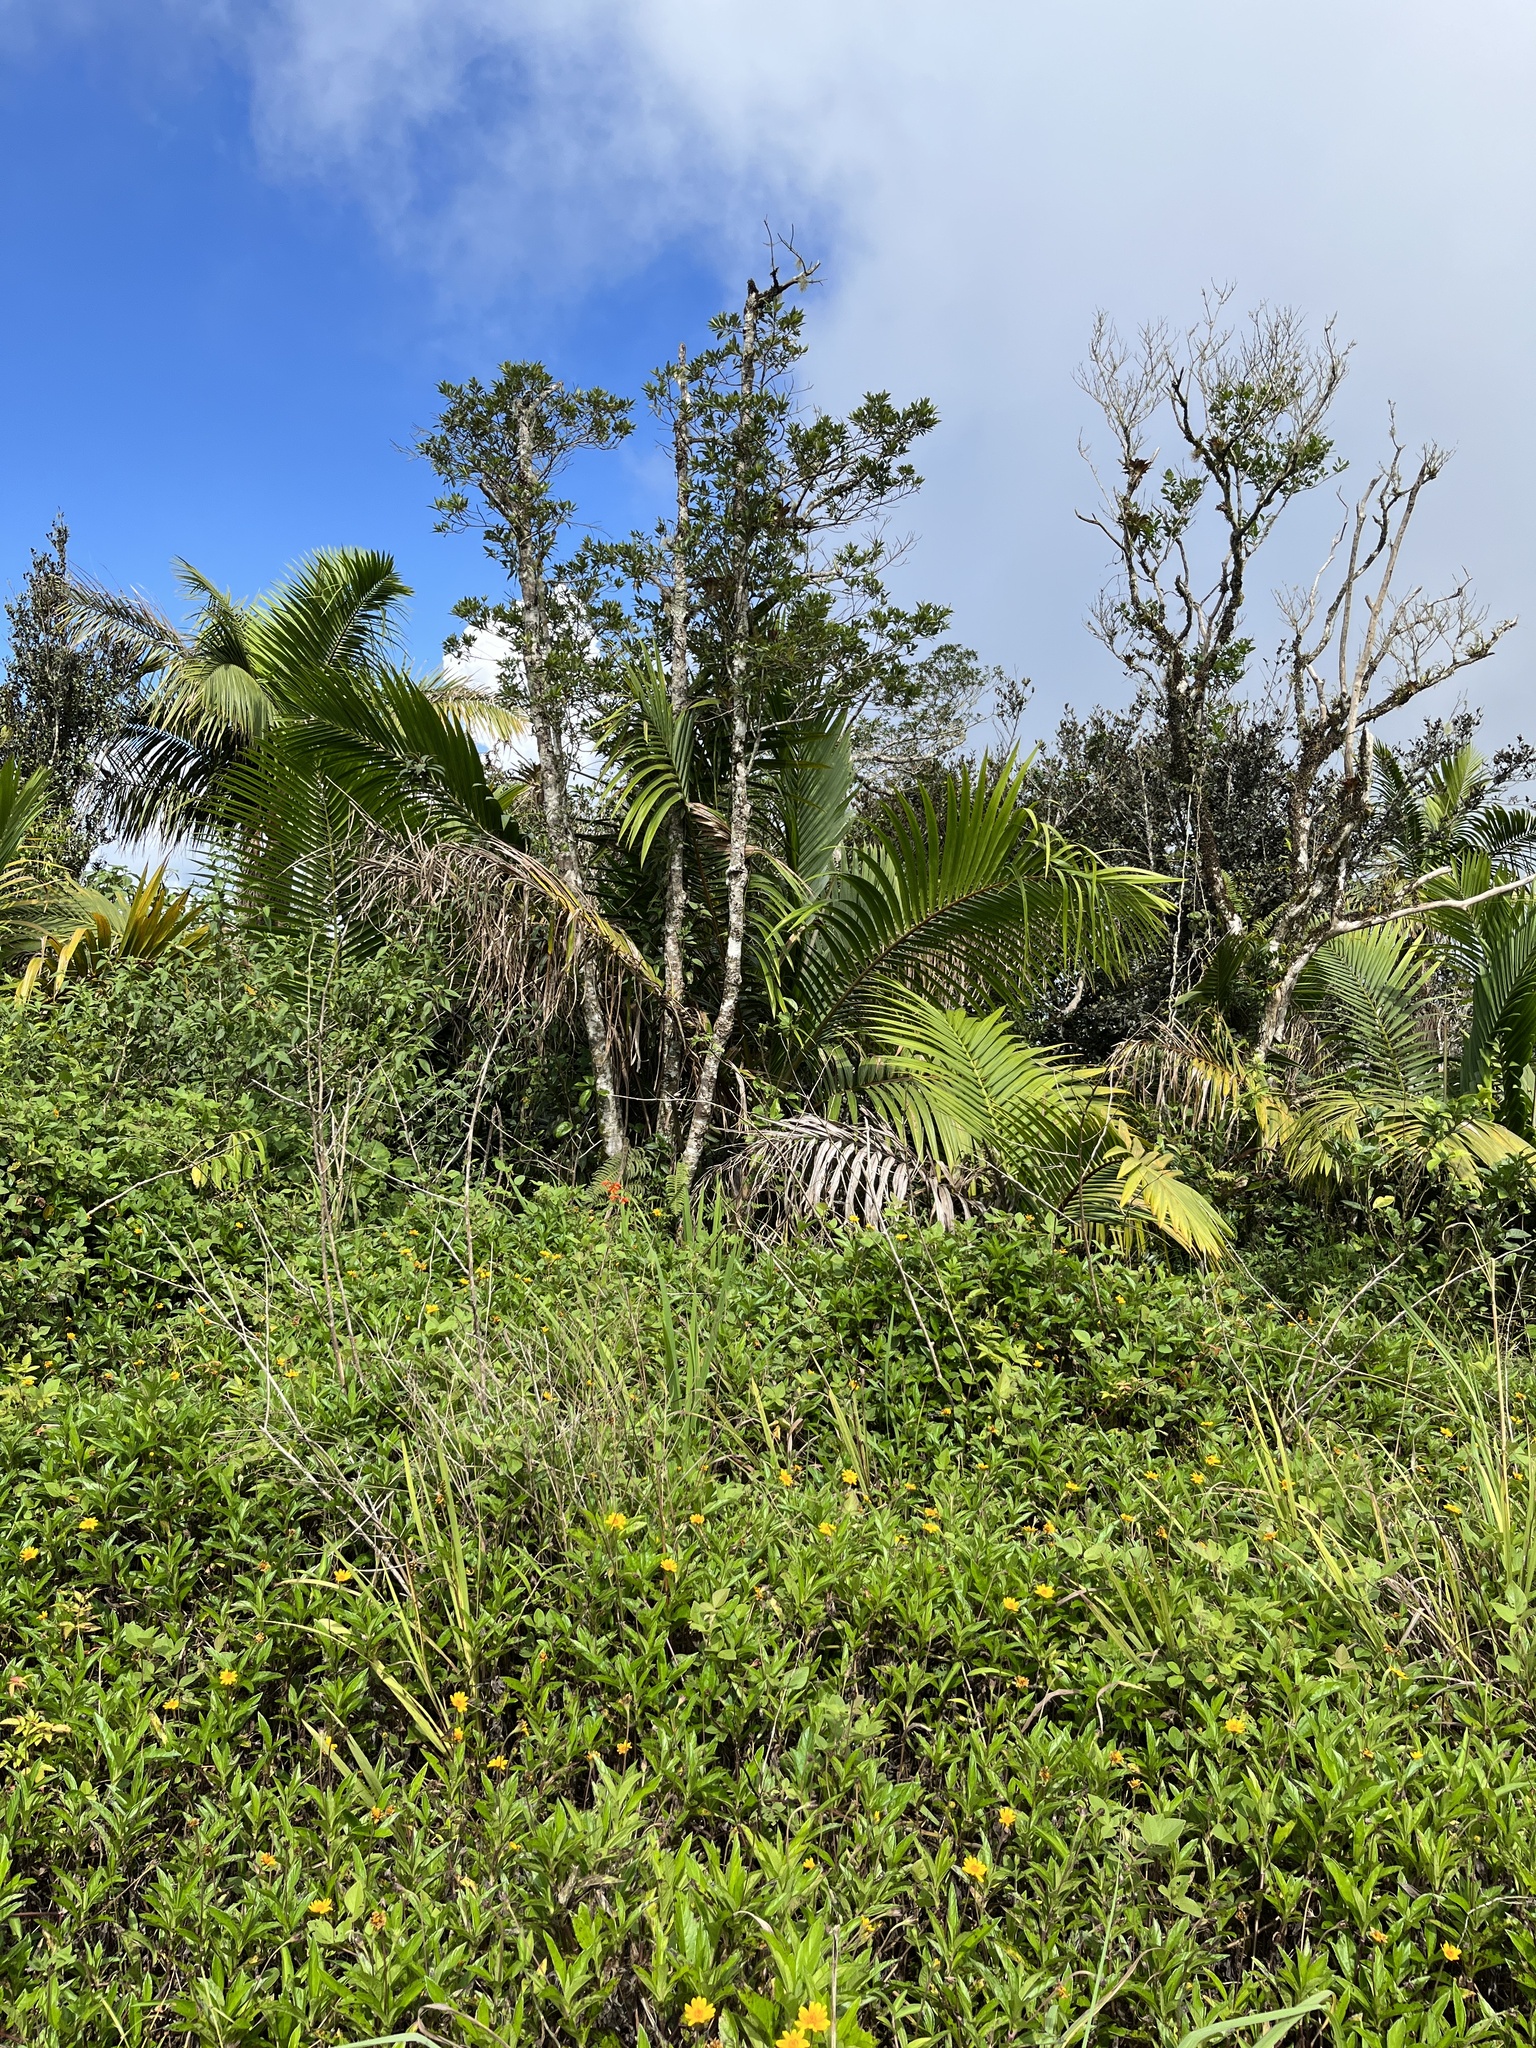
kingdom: Plantae
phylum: Tracheophyta
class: Liliopsida
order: Arecales
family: Arecaceae
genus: Prestoea
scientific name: Prestoea acuminata
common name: Sierran palm
